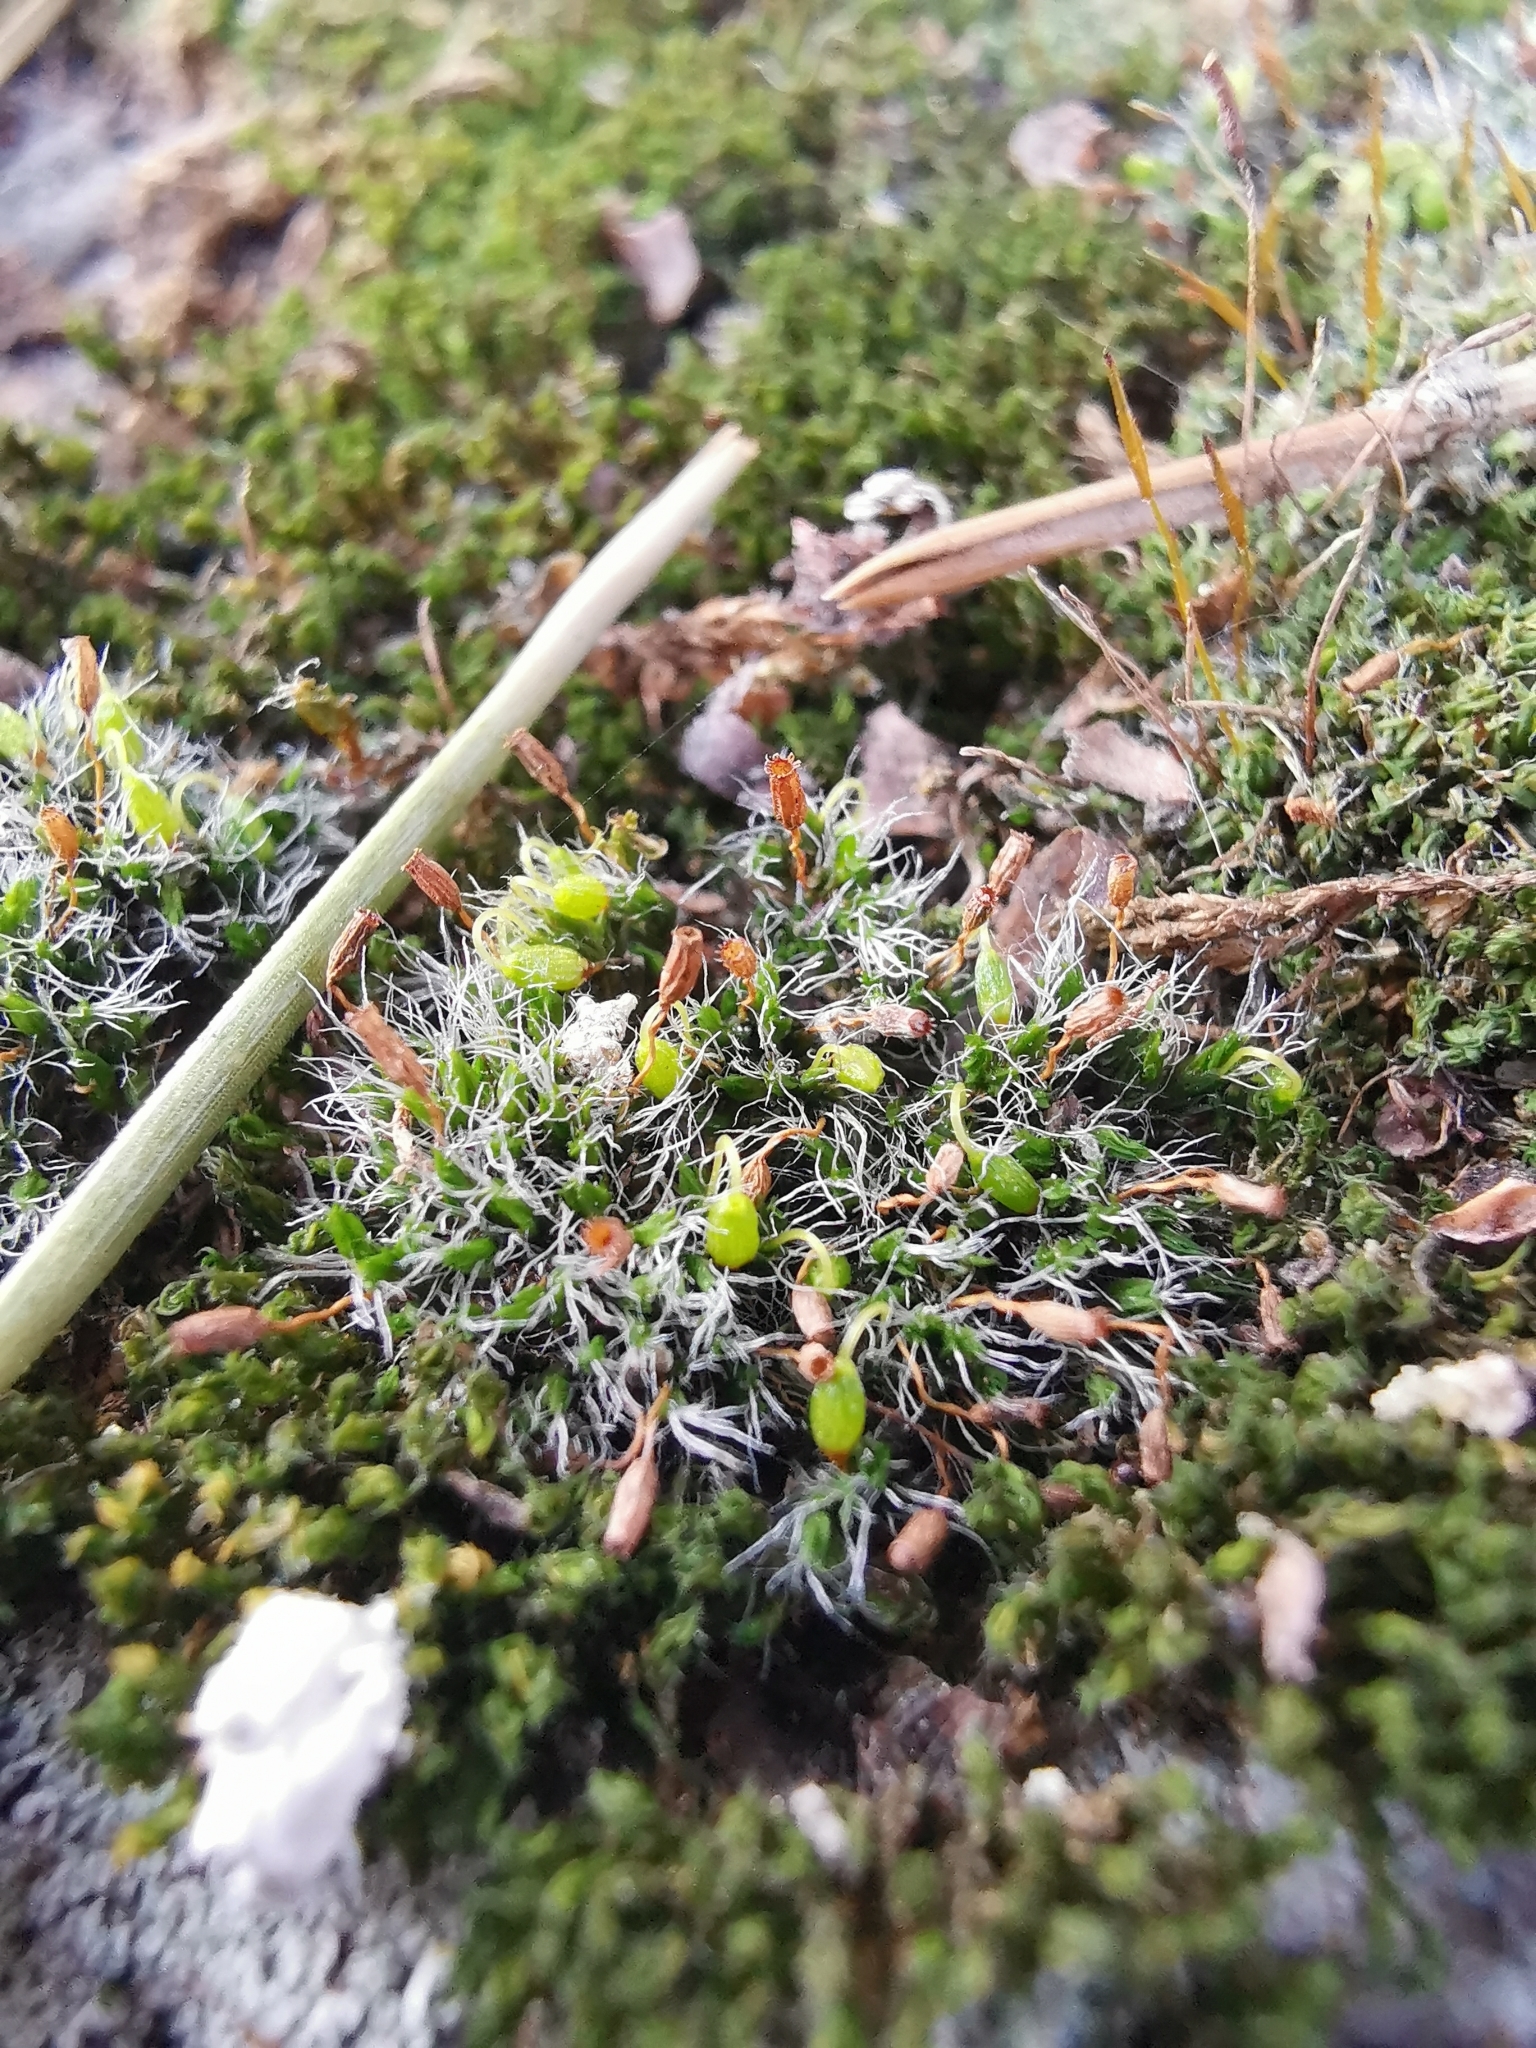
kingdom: Plantae
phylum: Bryophyta
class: Bryopsida
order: Grimmiales
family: Grimmiaceae
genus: Grimmia
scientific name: Grimmia pulvinata
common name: Grey-cushioned grimmia
